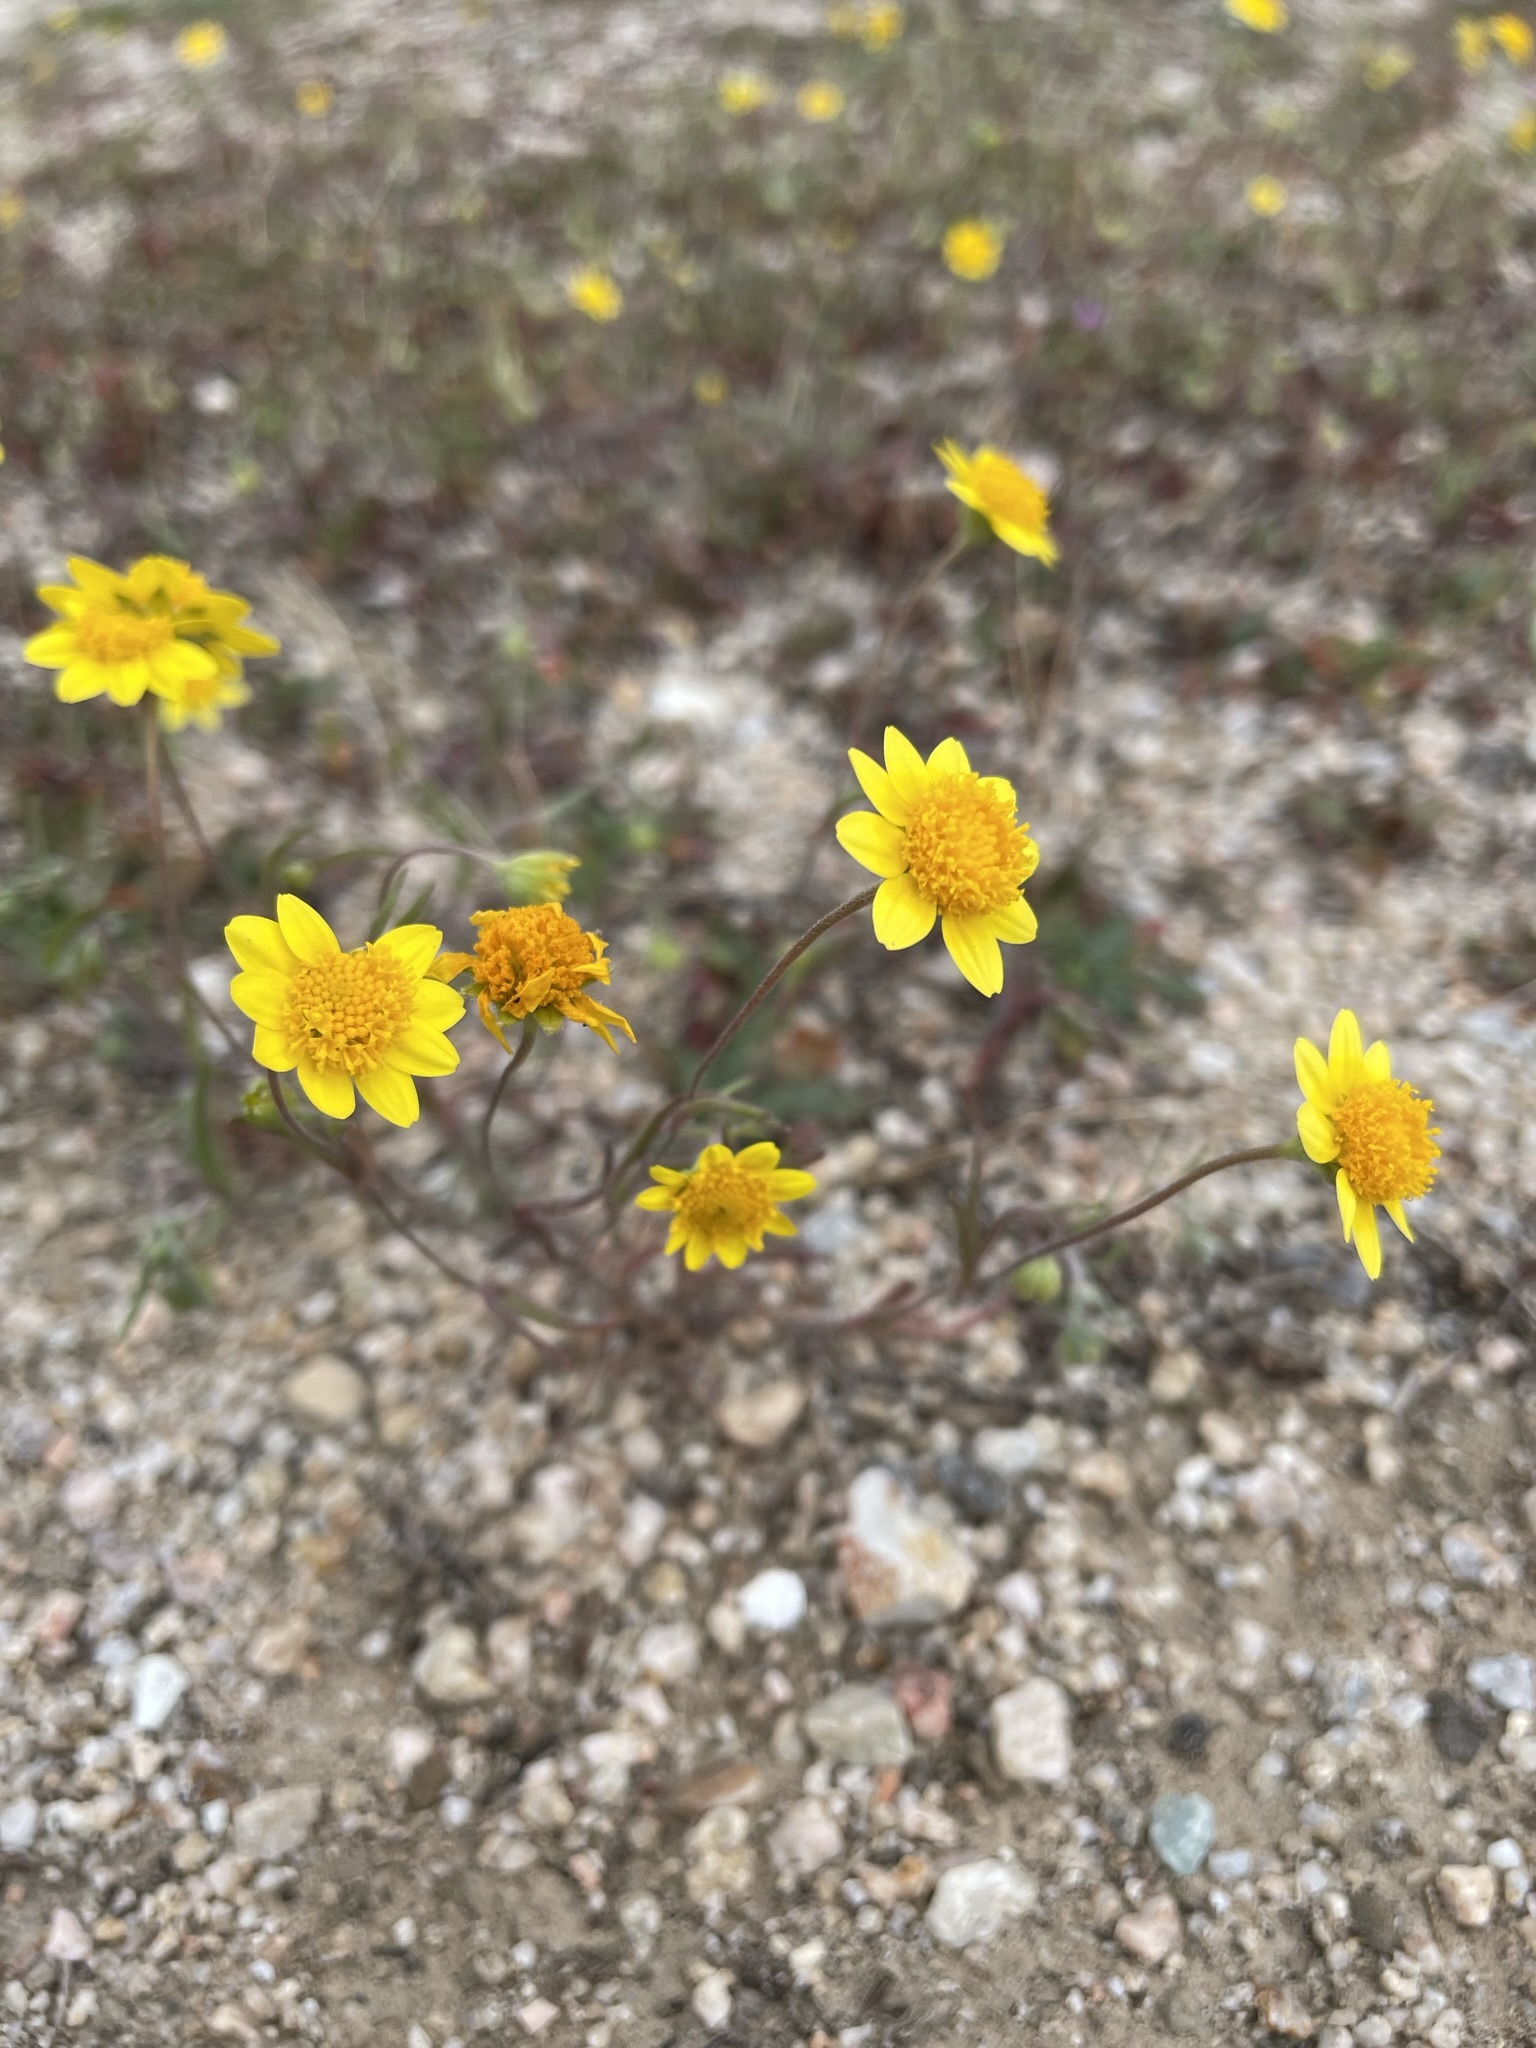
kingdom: Plantae
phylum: Tracheophyta
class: Magnoliopsida
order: Asterales
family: Asteraceae
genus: Lasthenia
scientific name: Lasthenia gracilis
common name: Common goldfields
